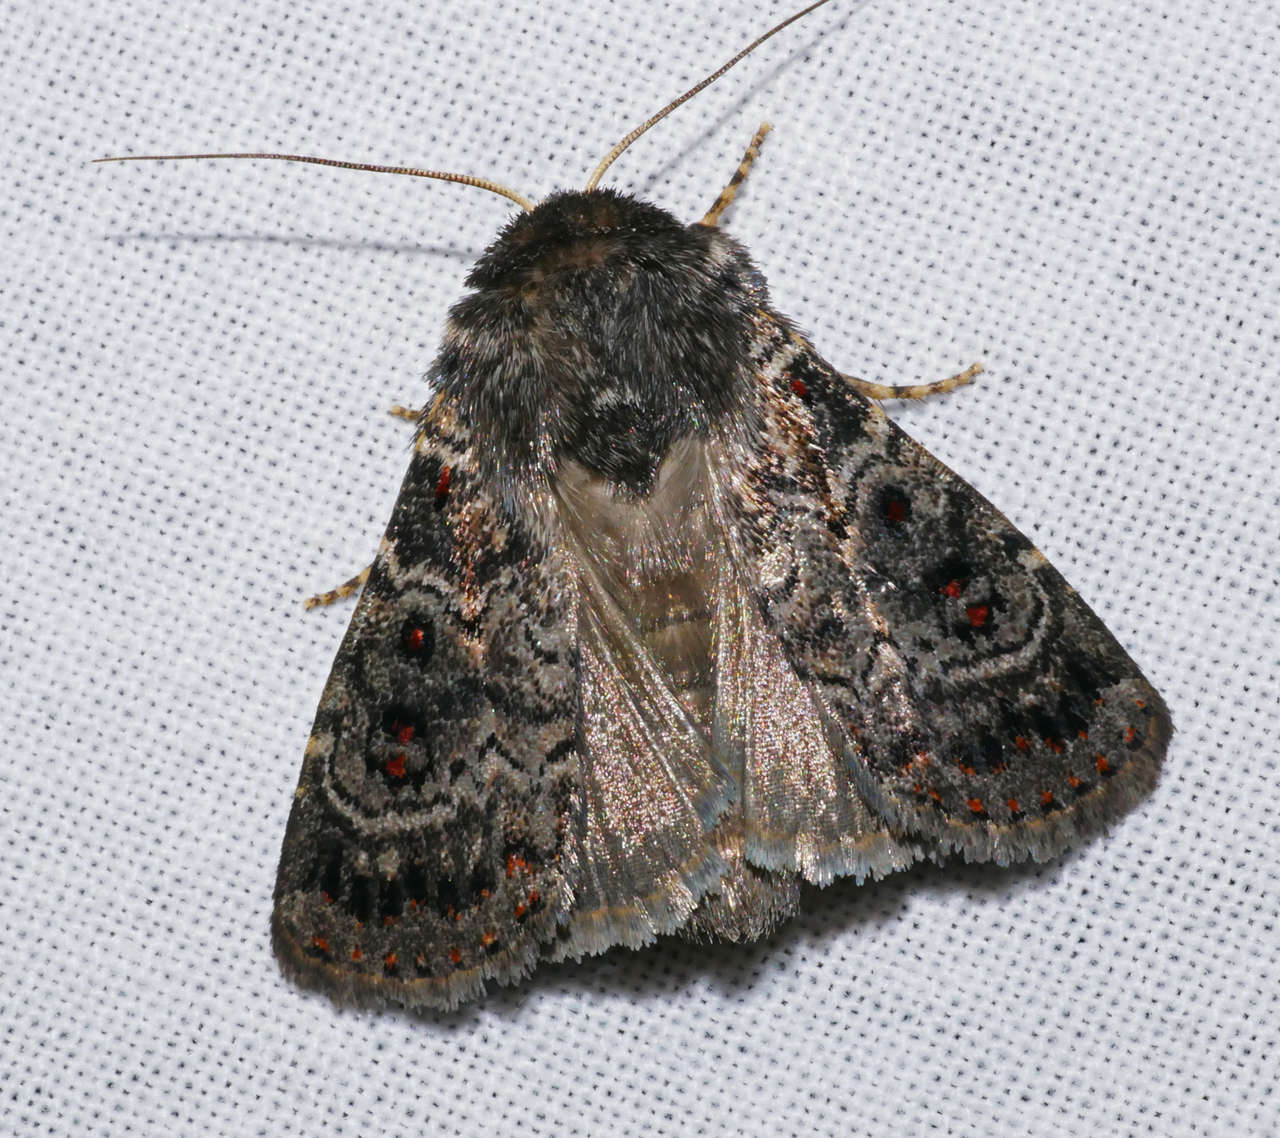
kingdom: Animalia
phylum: Arthropoda
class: Insecta
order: Lepidoptera
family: Noctuidae
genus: Proteuxoa
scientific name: Proteuxoa rubripuncta
